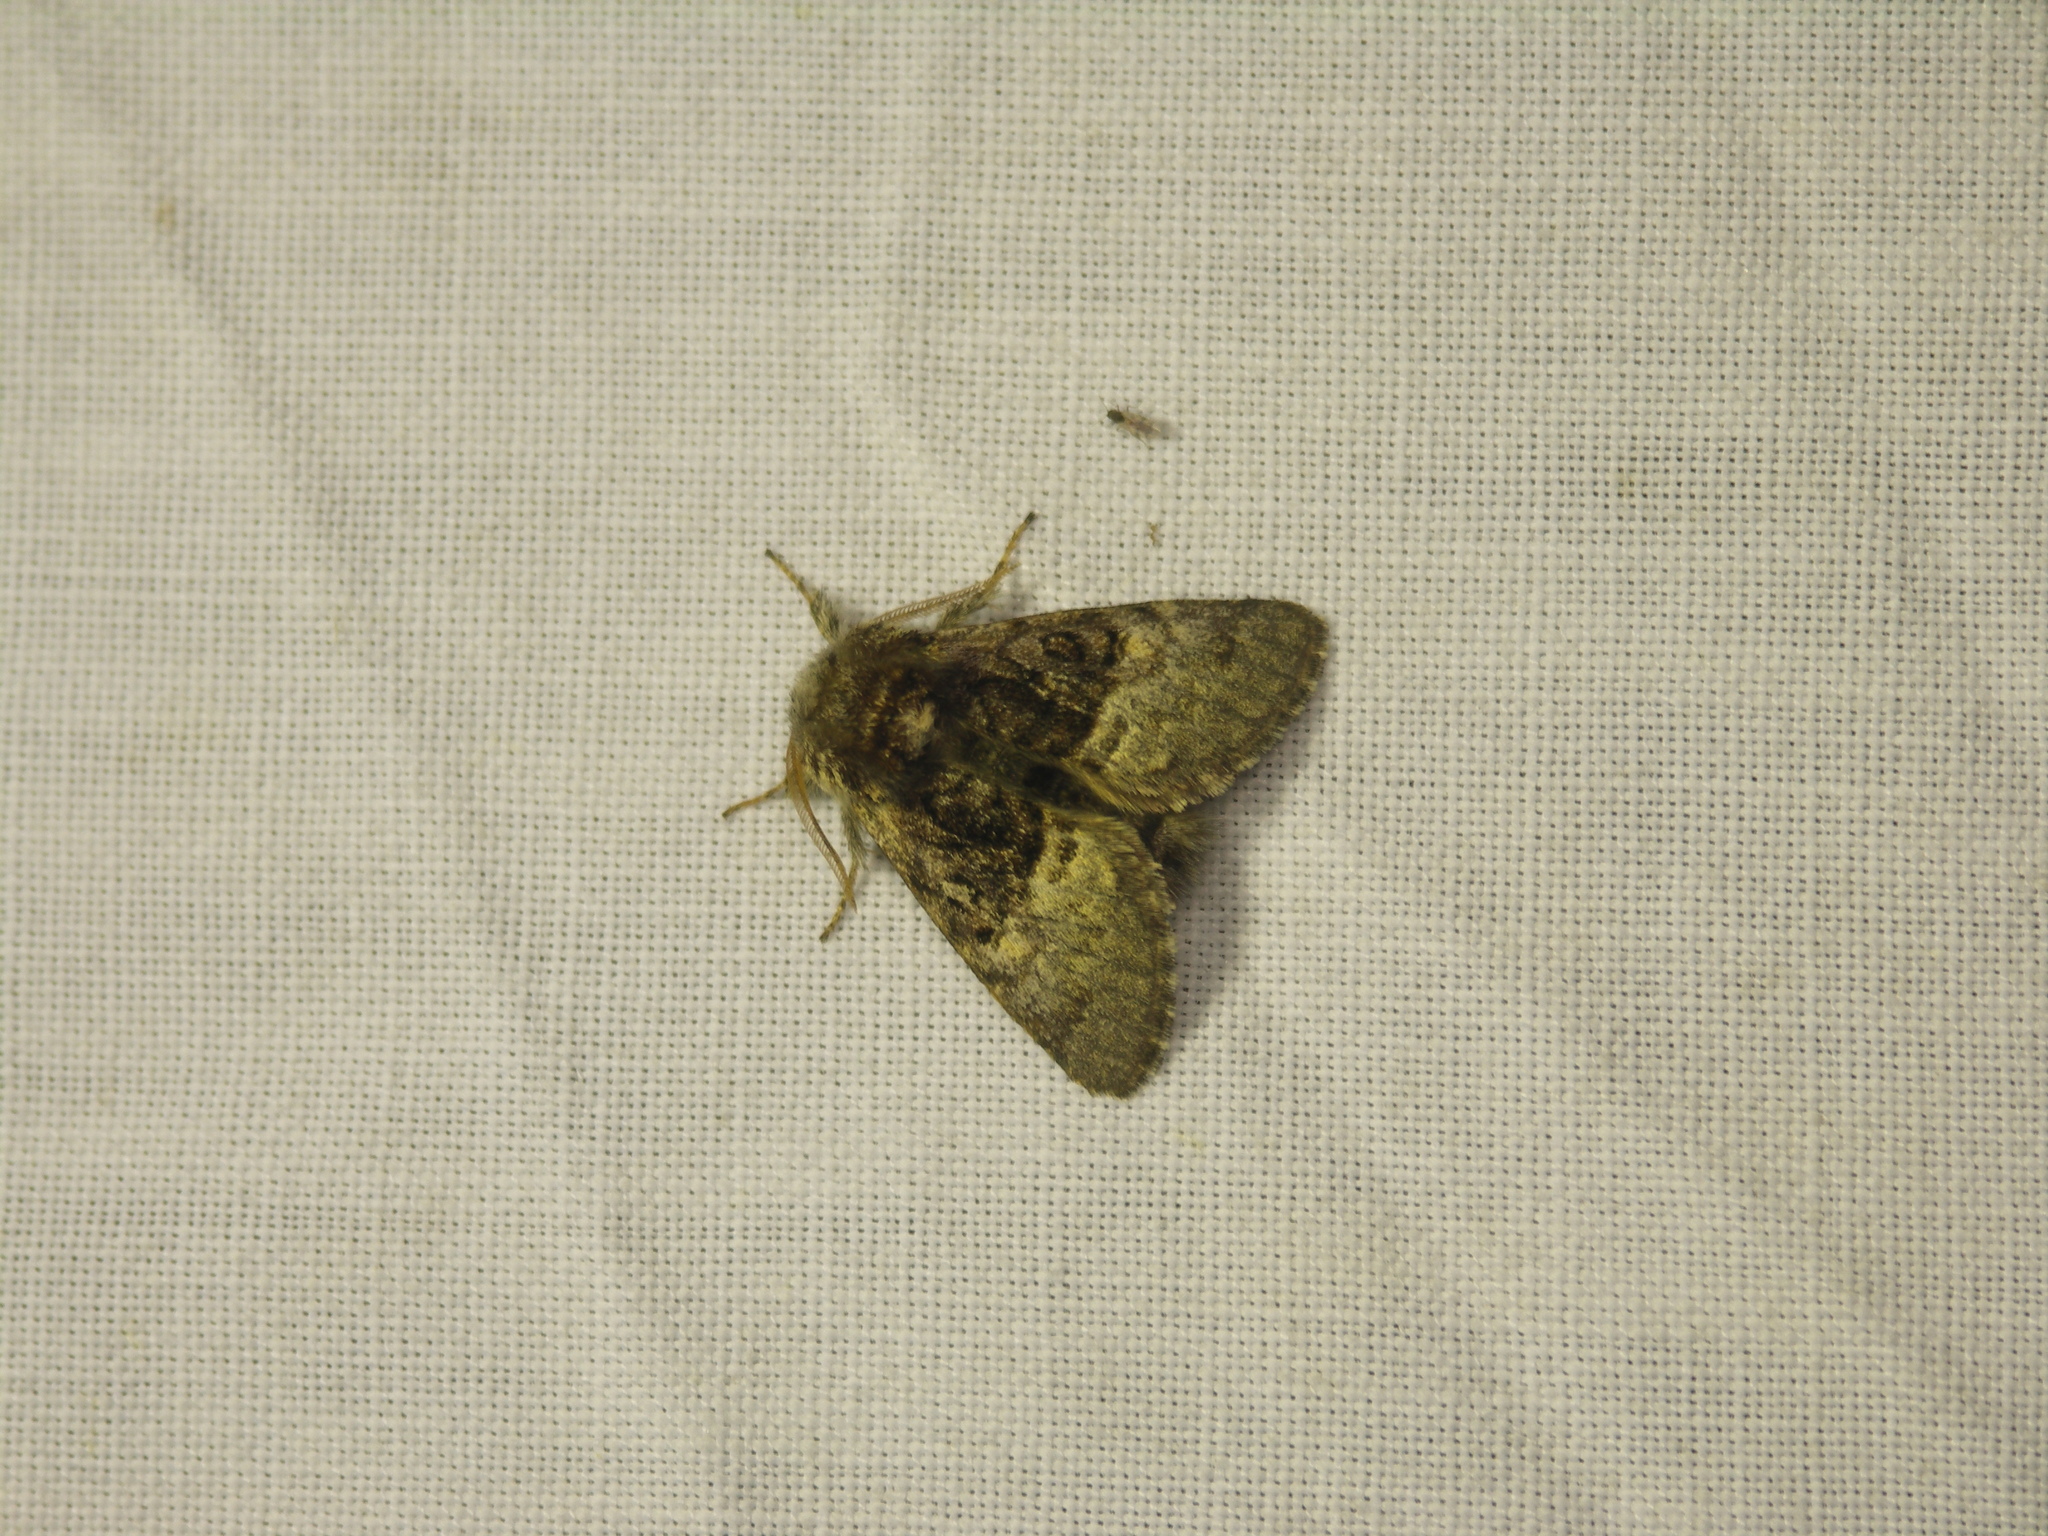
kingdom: Animalia
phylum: Arthropoda
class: Insecta
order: Lepidoptera
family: Noctuidae
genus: Colocasia
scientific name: Colocasia coryli
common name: Nut-tree tussock
